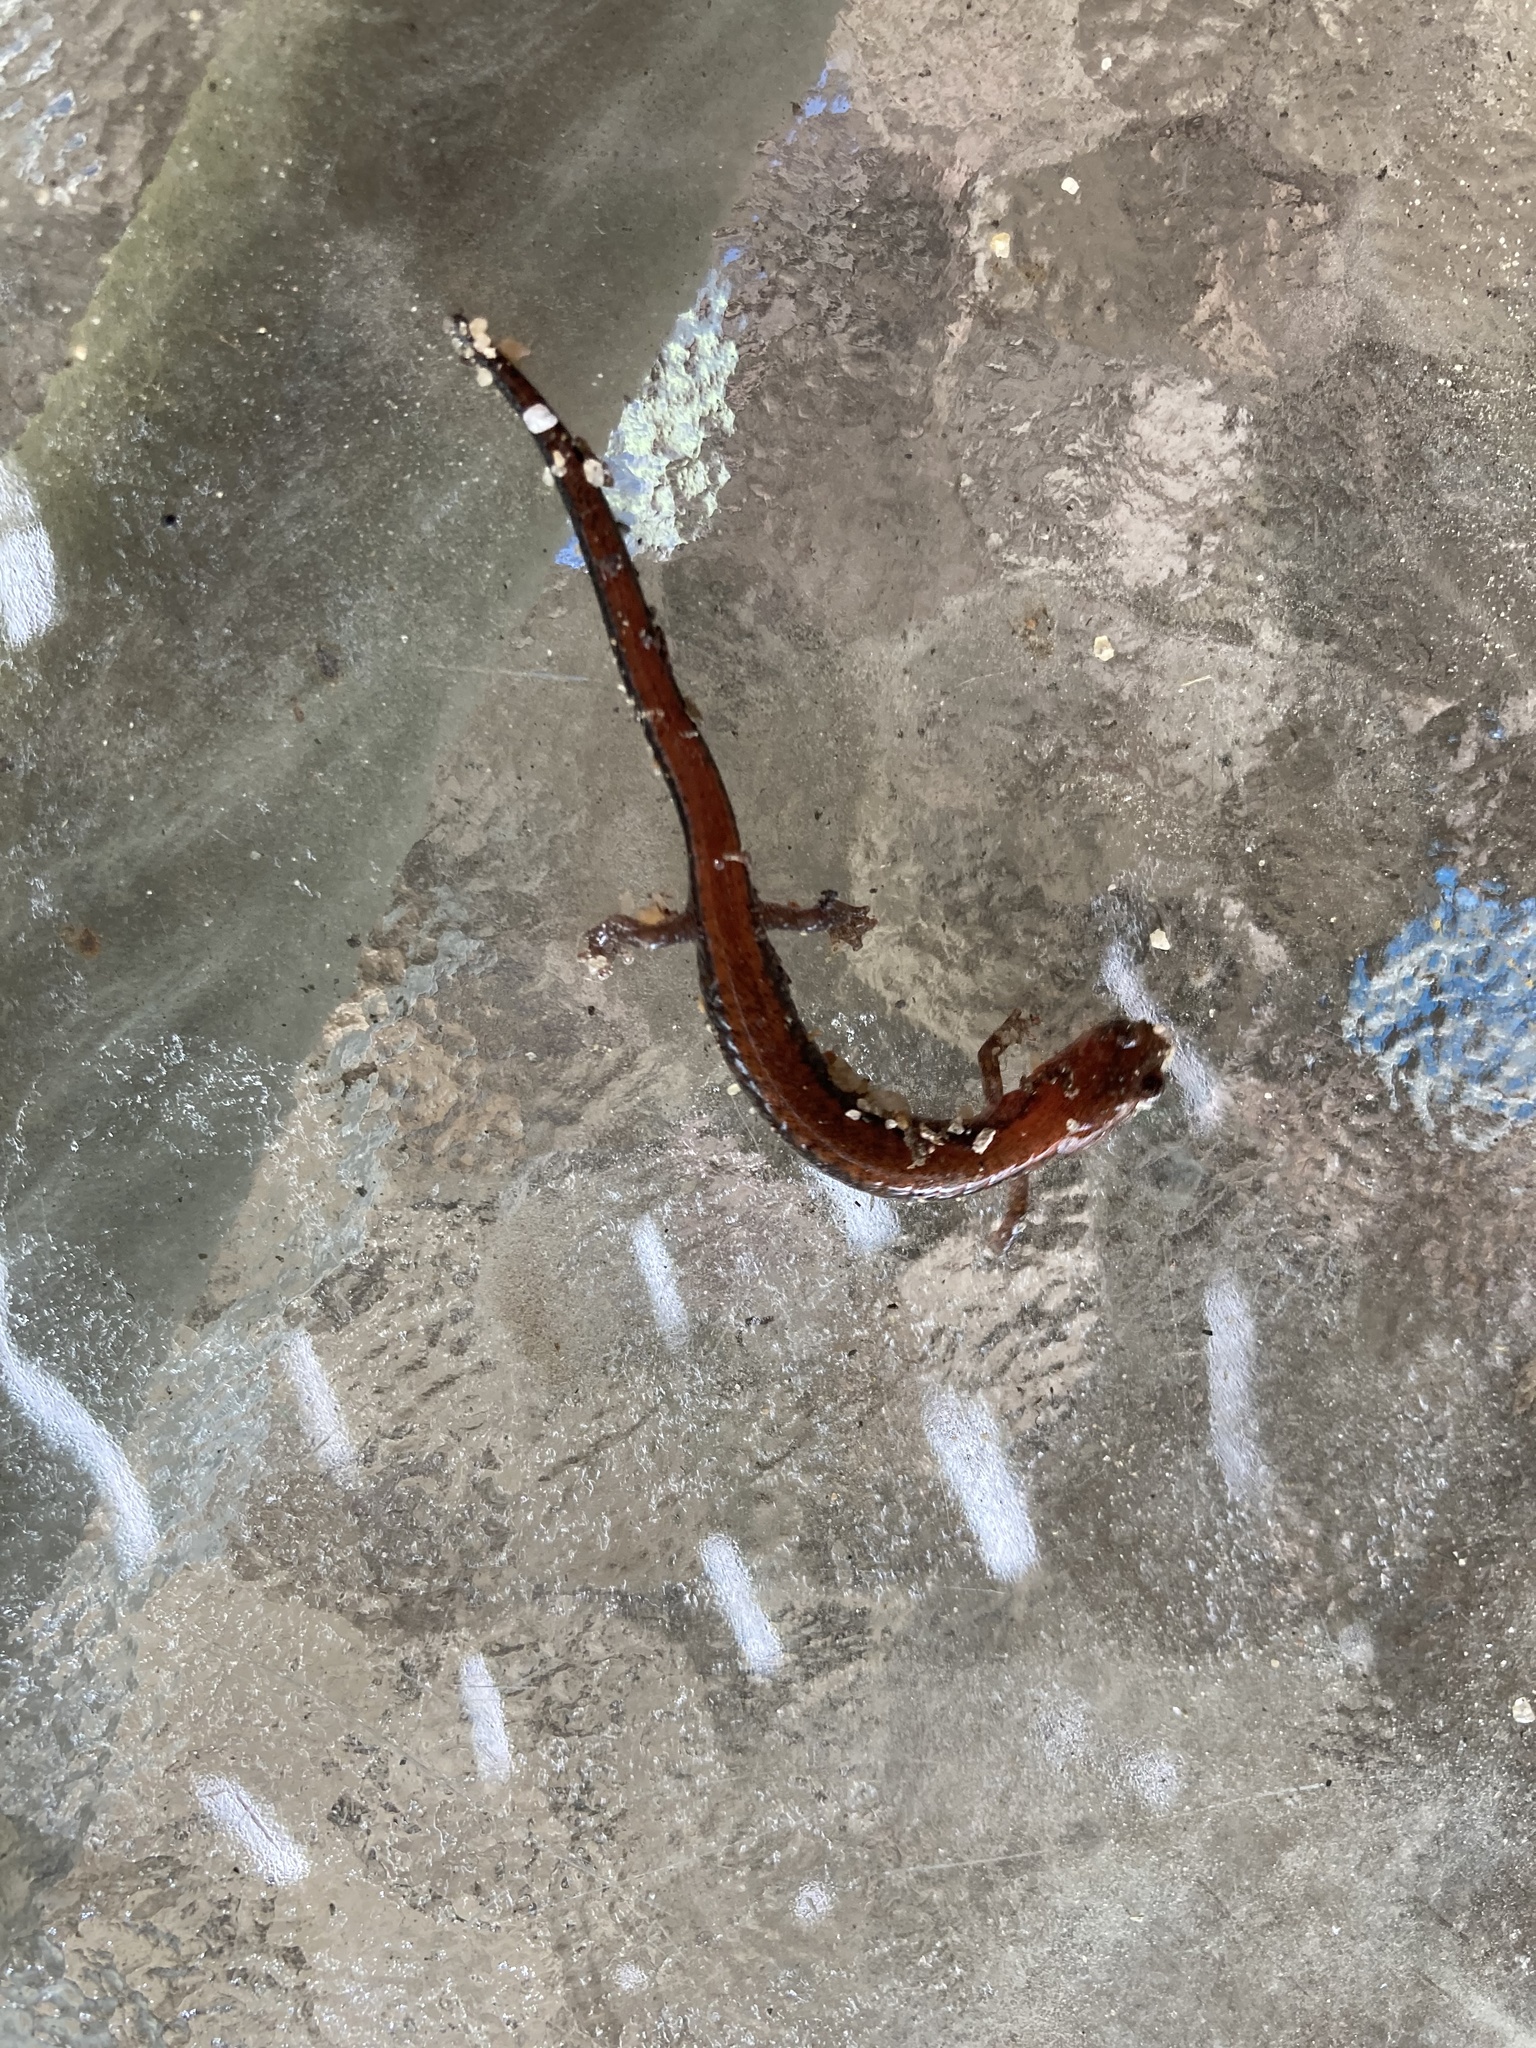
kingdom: Animalia
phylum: Chordata
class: Amphibia
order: Caudata
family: Plethodontidae
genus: Plethodon
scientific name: Plethodon cinereus
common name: Redback salamander
